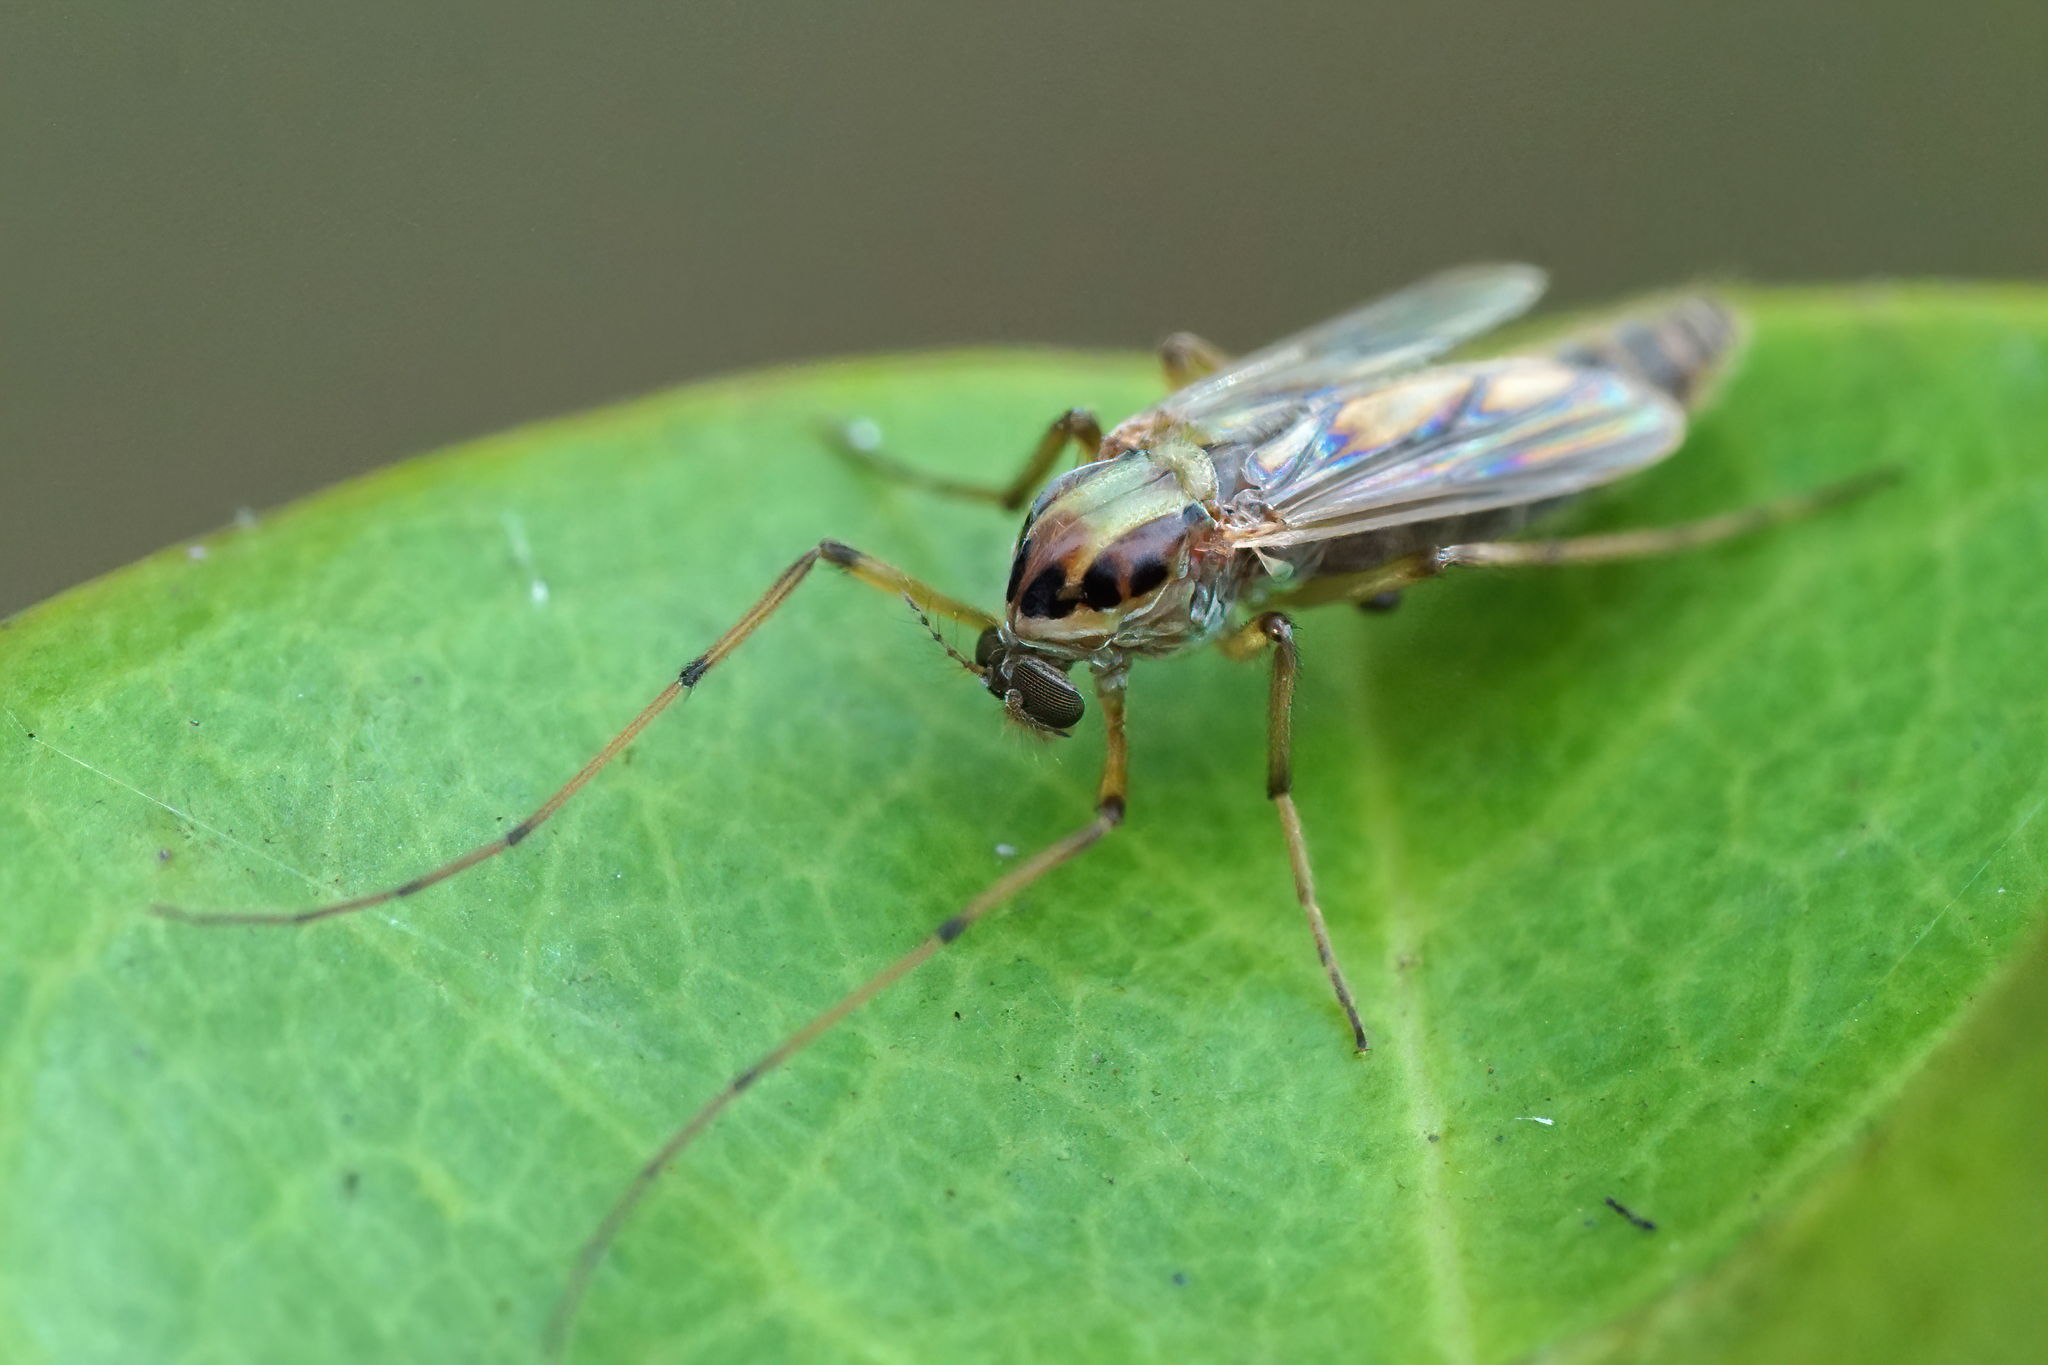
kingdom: Animalia
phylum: Arthropoda
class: Insecta
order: Diptera
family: Chironomidae
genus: Goeldichironomus
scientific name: Goeldichironomus carus
